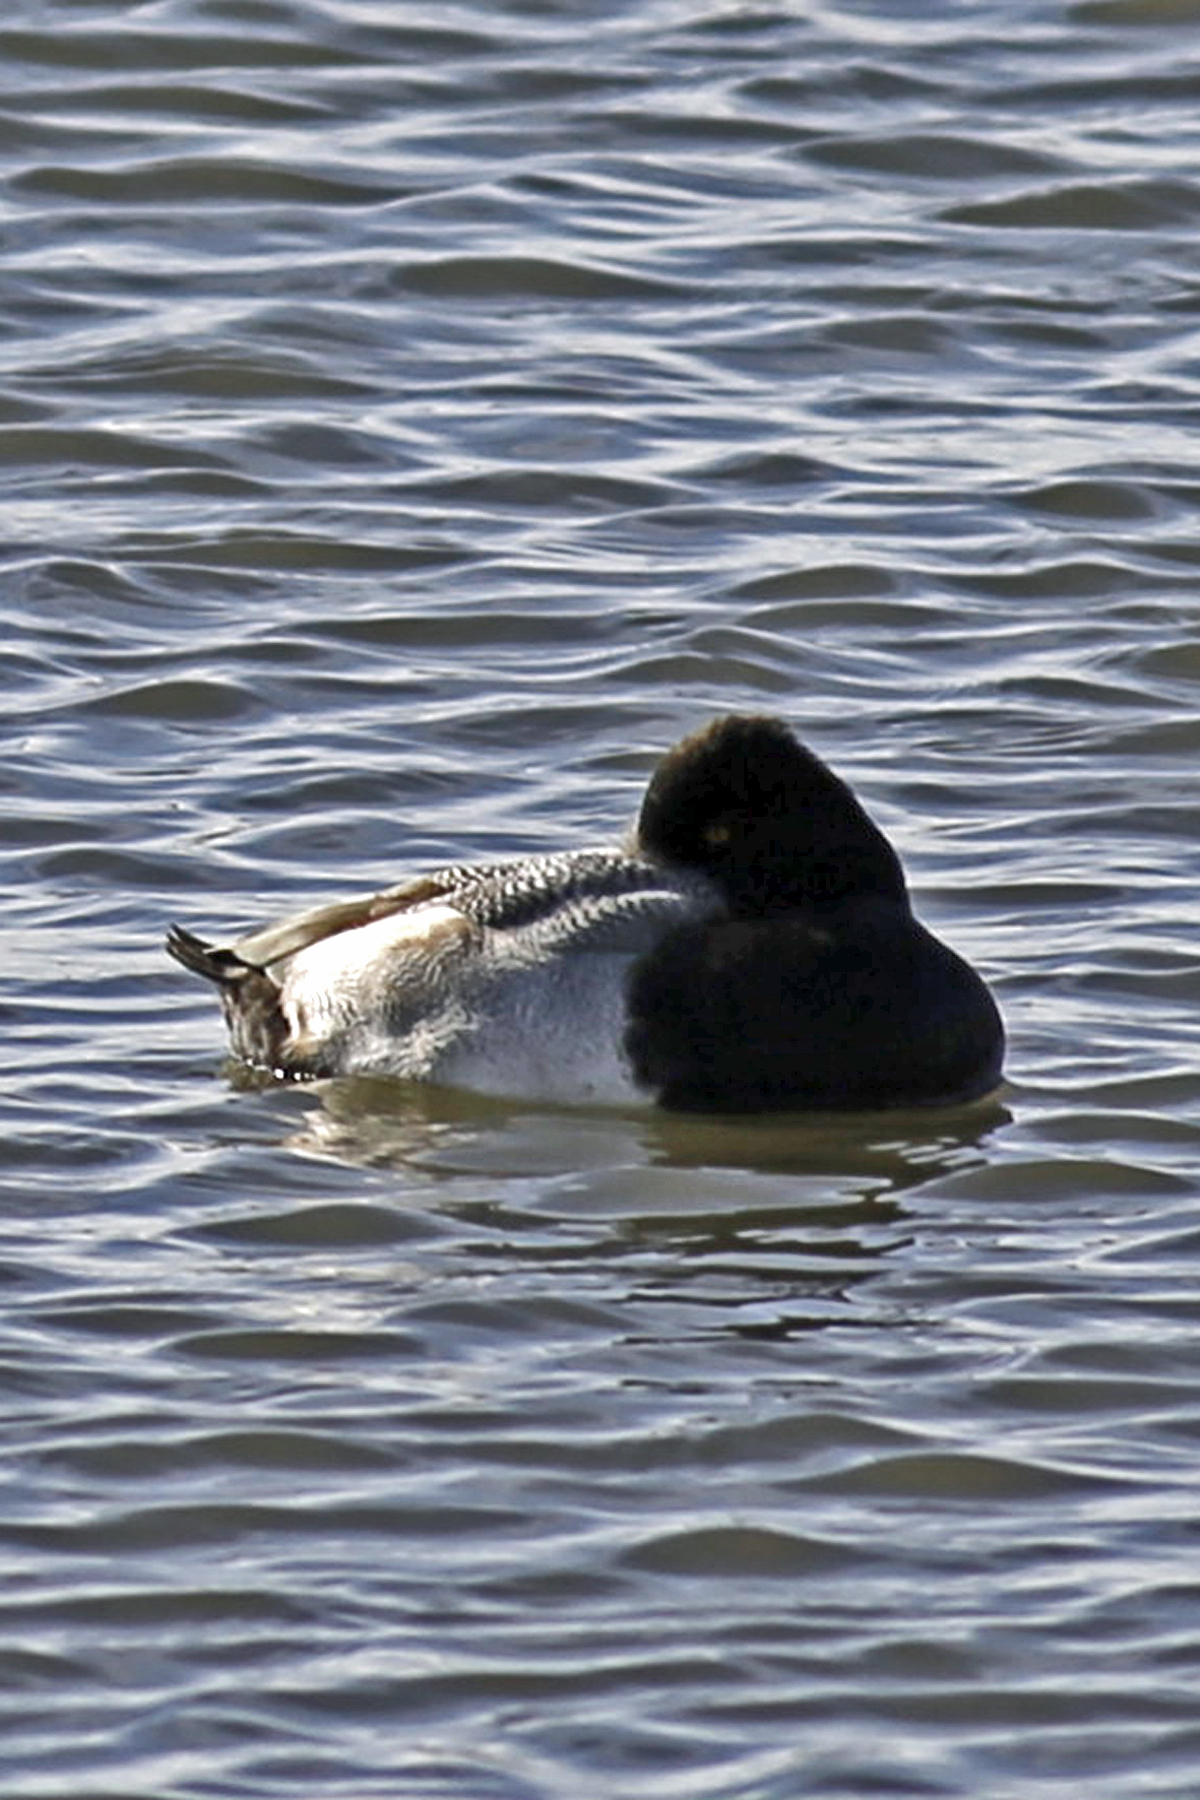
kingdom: Animalia
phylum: Chordata
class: Aves
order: Anseriformes
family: Anatidae
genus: Aythya
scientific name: Aythya affinis
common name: Lesser scaup
